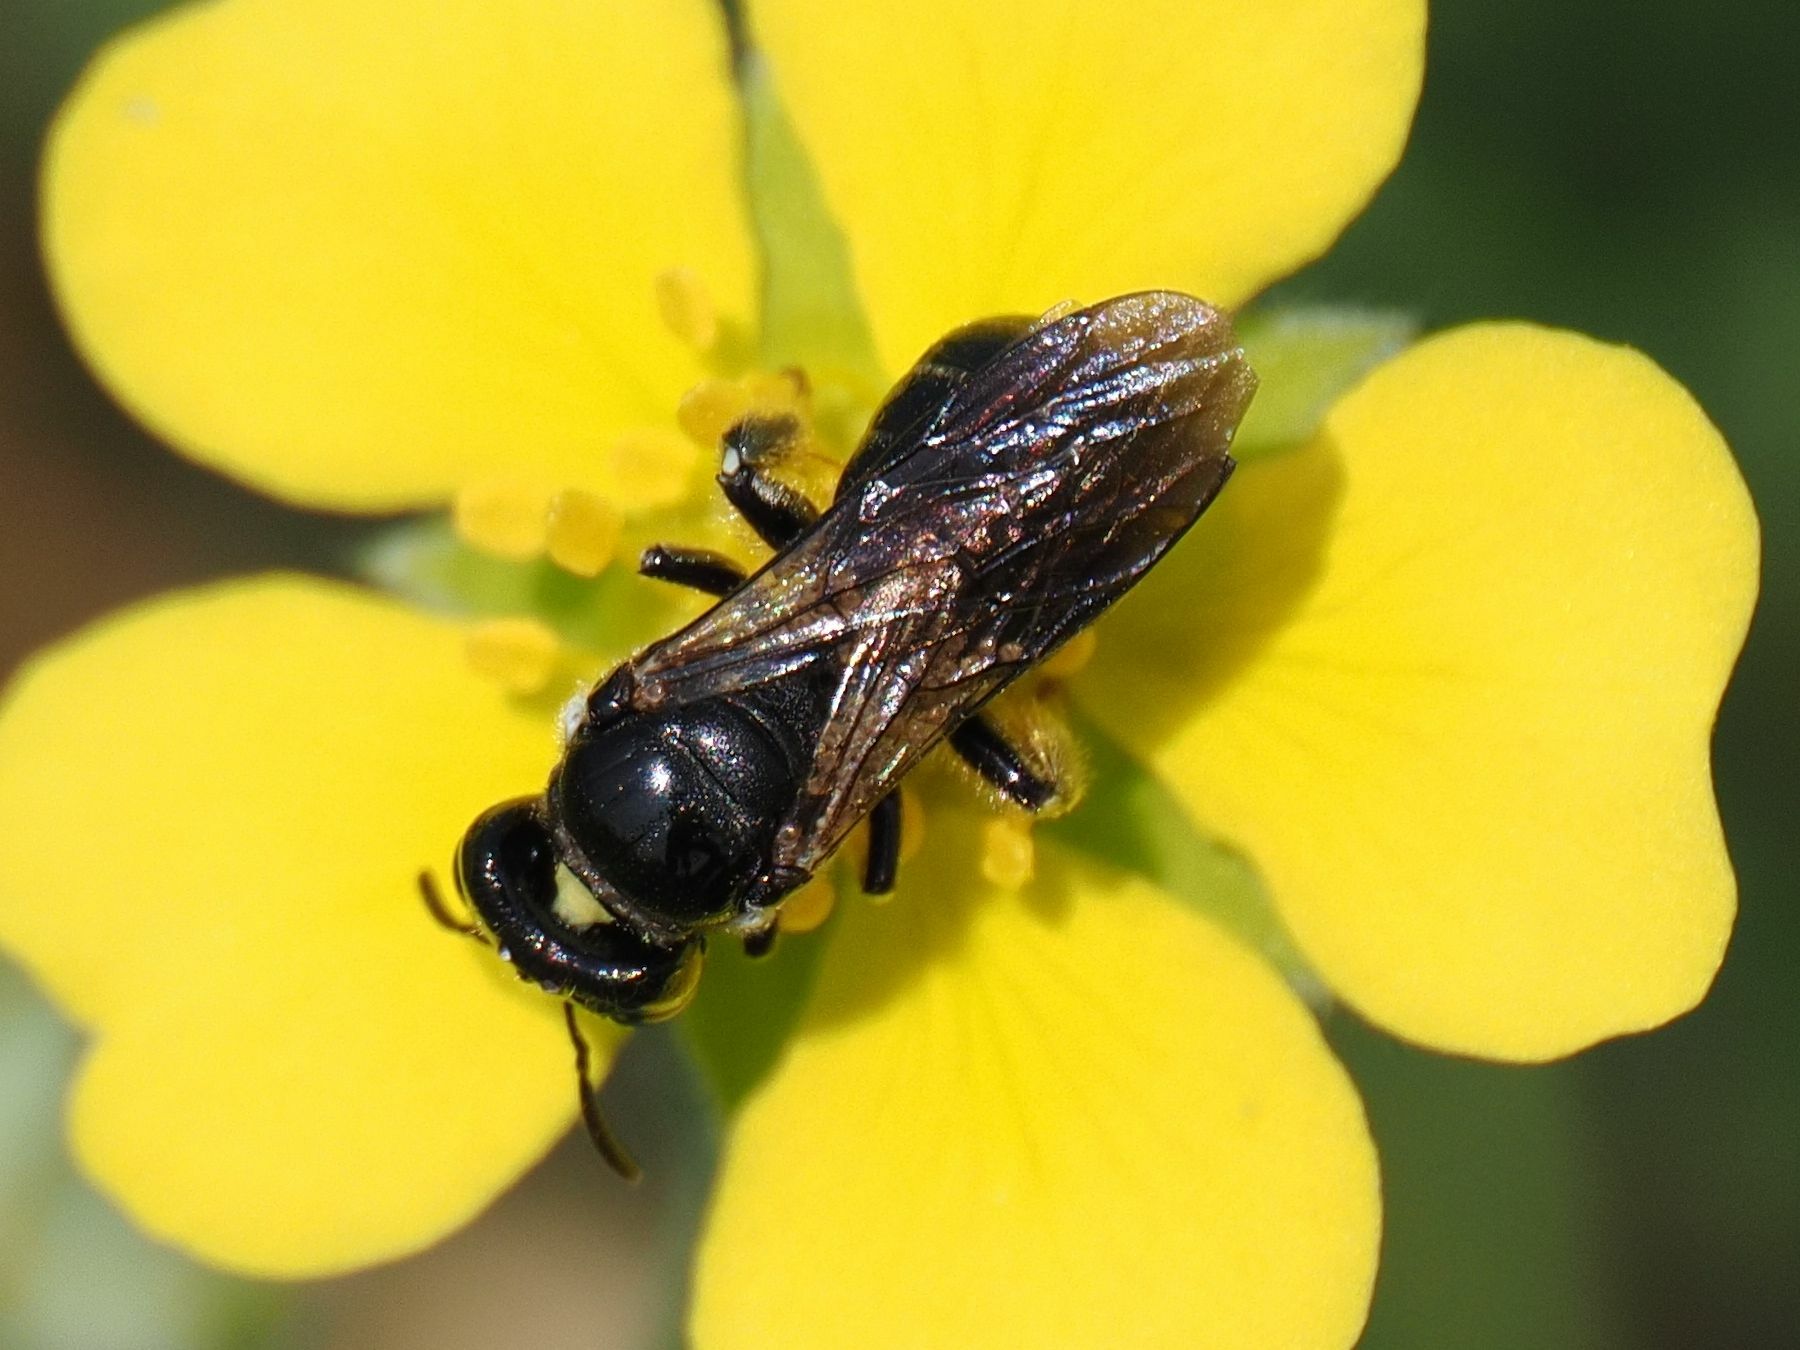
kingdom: Animalia
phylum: Arthropoda
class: Insecta
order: Hymenoptera
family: Apidae
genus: Ceratina
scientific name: Ceratina cucurbitina
